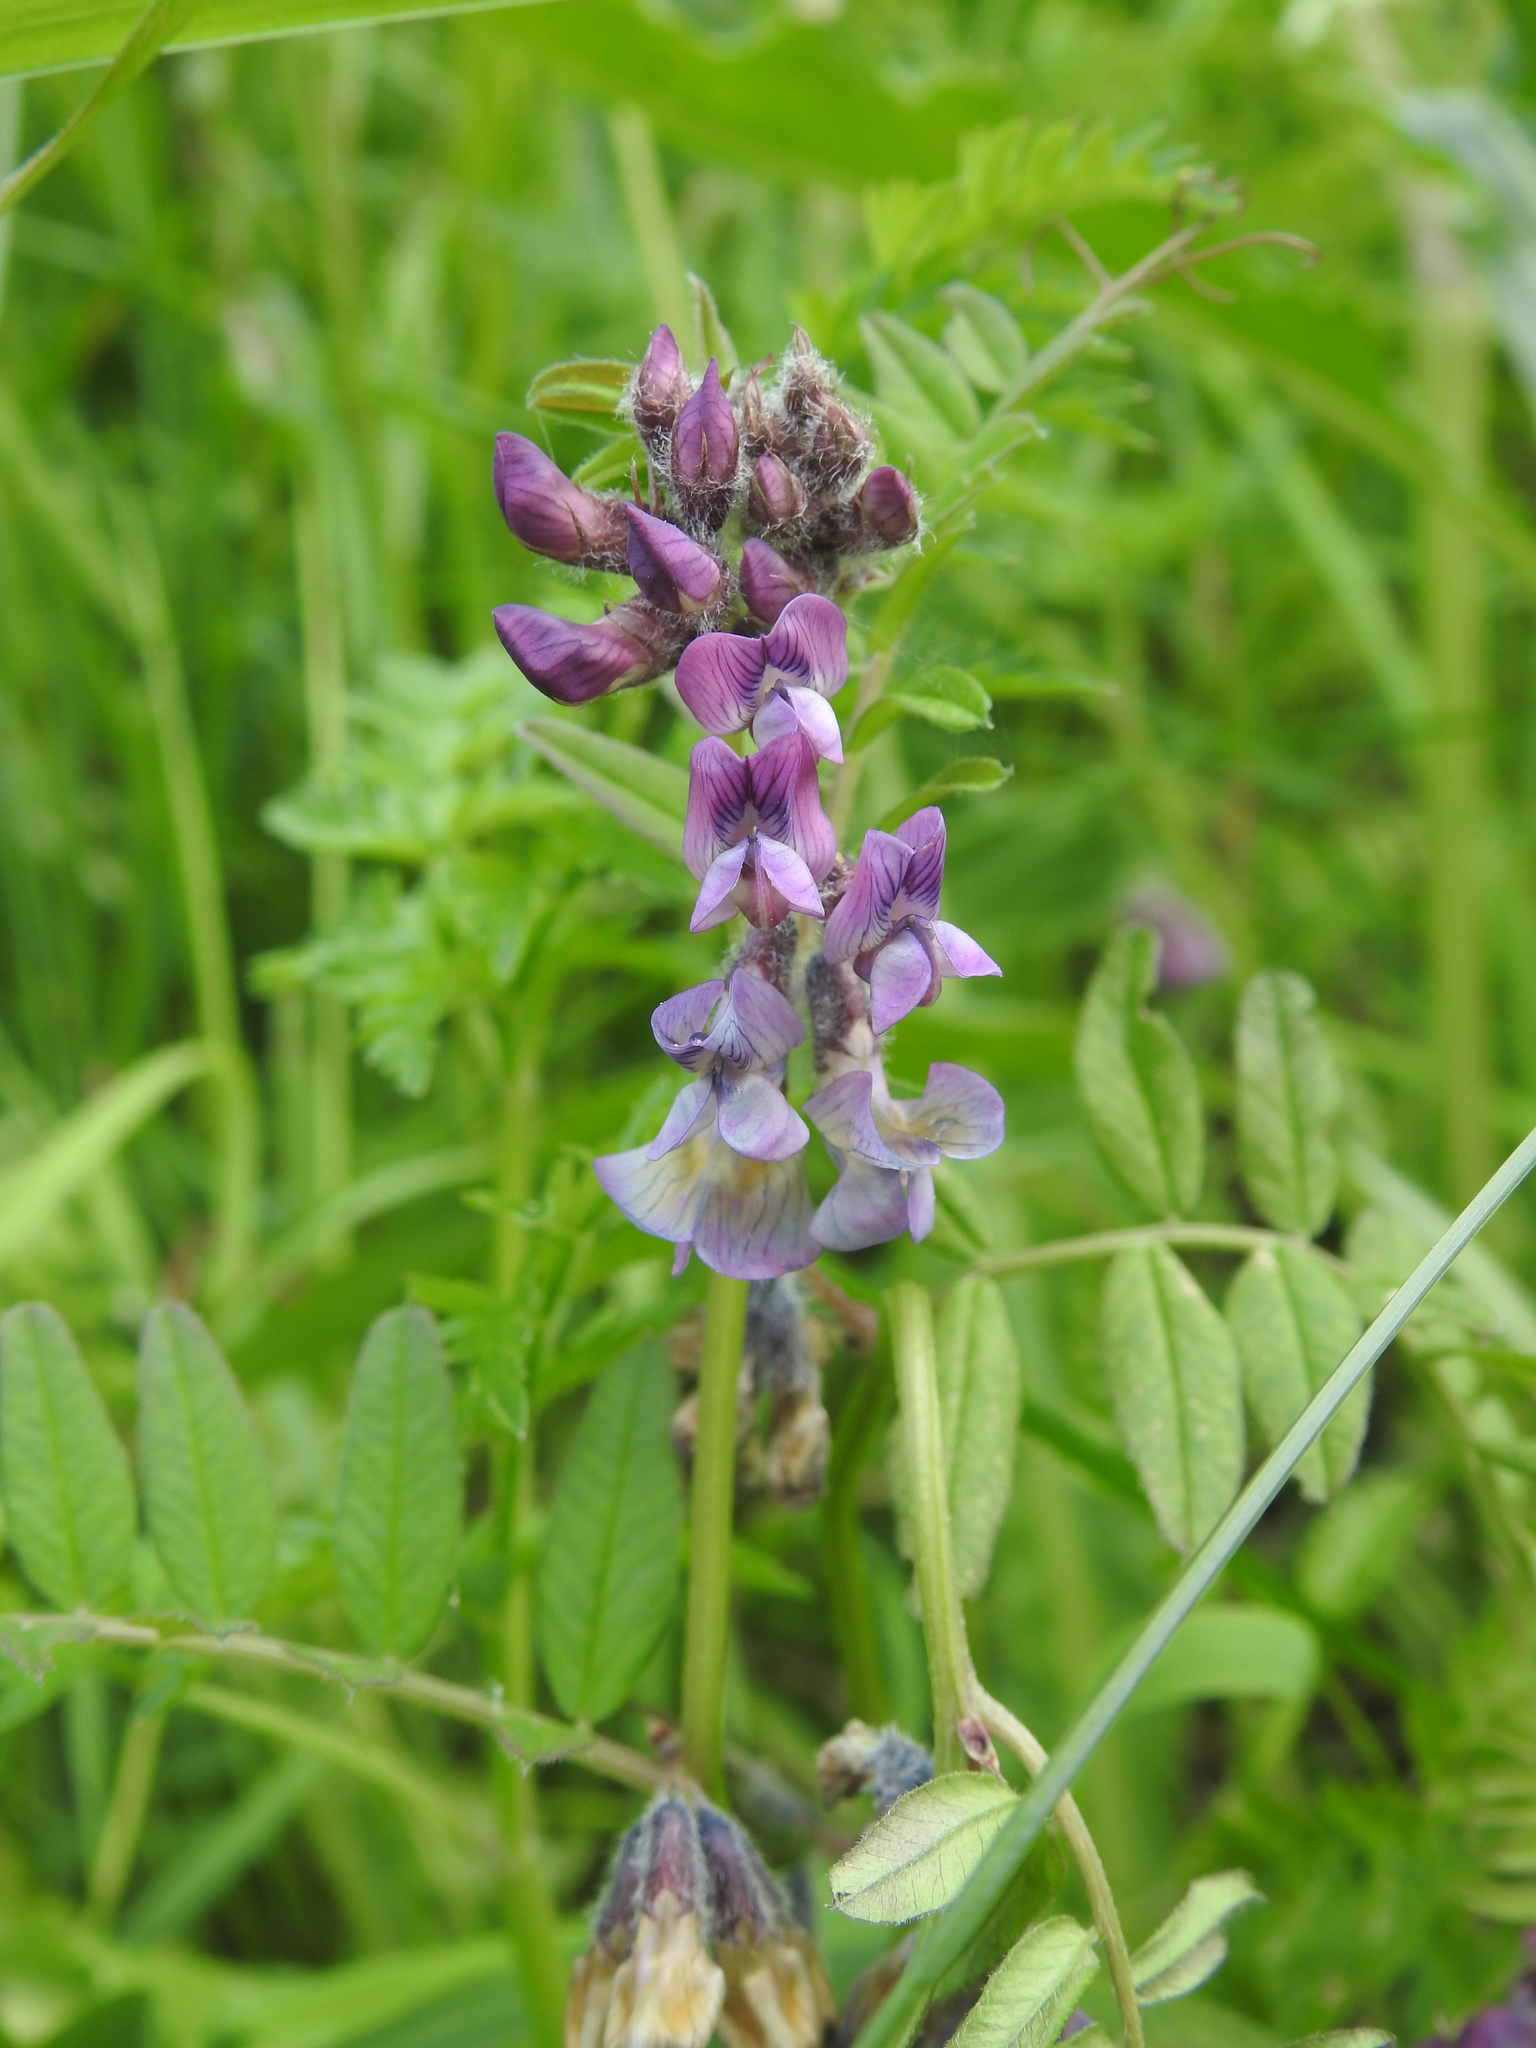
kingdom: Plantae
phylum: Tracheophyta
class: Magnoliopsida
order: Fabales
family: Fabaceae
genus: Vicia
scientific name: Vicia sepium
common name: Bush vetch
